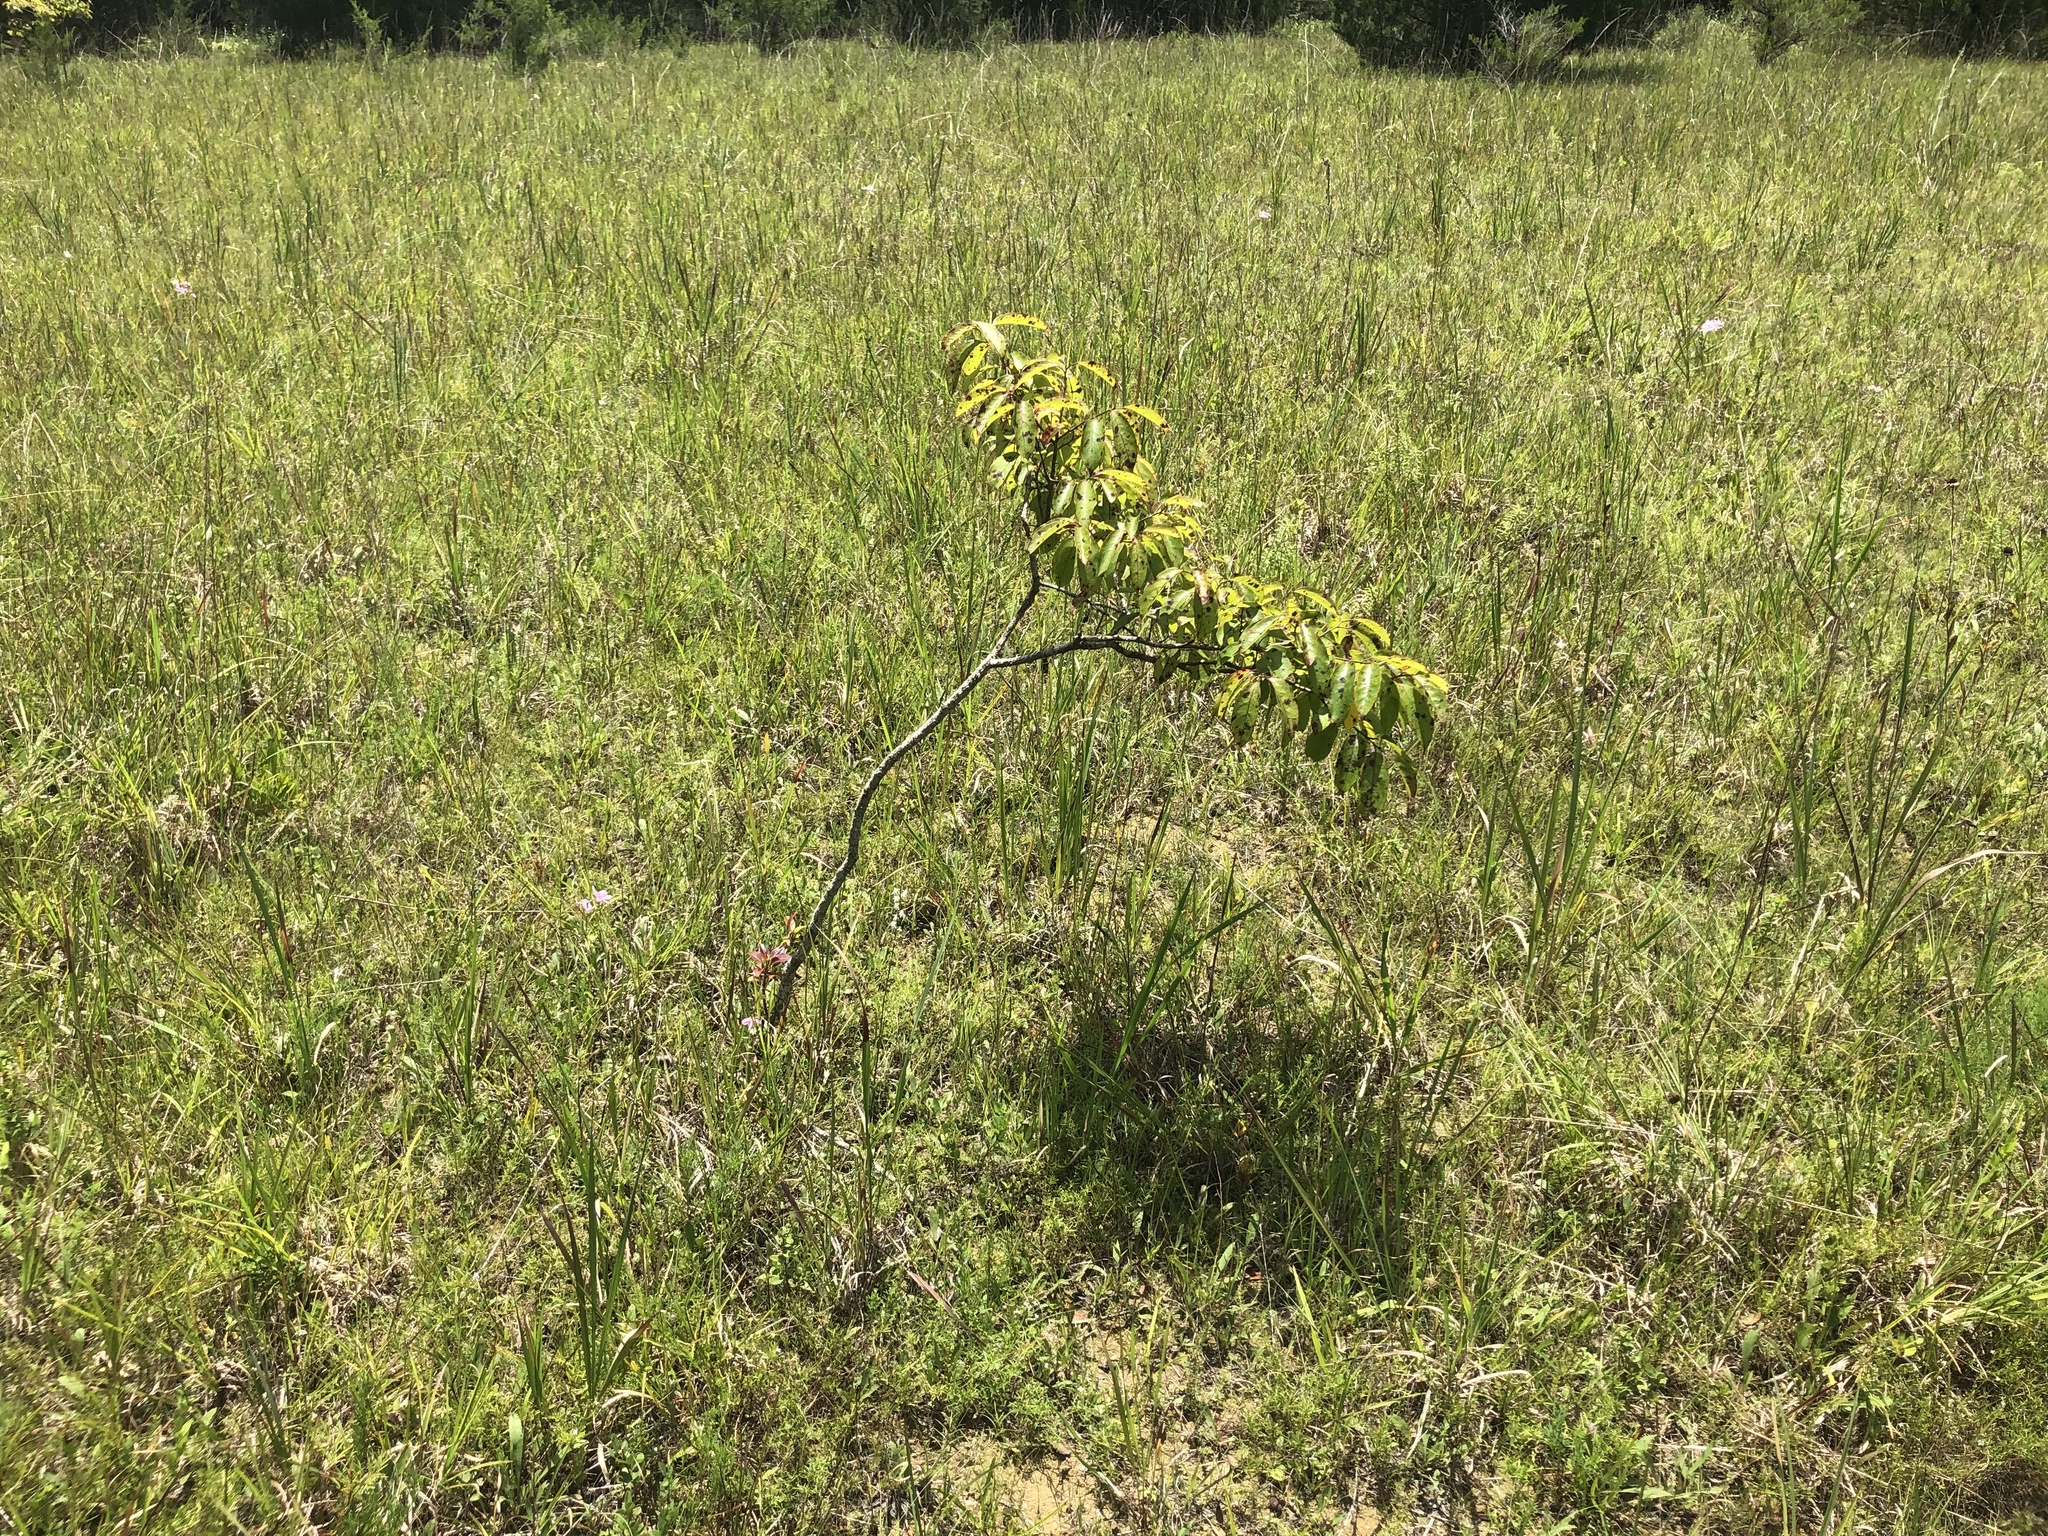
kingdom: Plantae
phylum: Tracheophyta
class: Magnoliopsida
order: Ericales
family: Ebenaceae
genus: Diospyros
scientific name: Diospyros virginiana
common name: Persimmon
